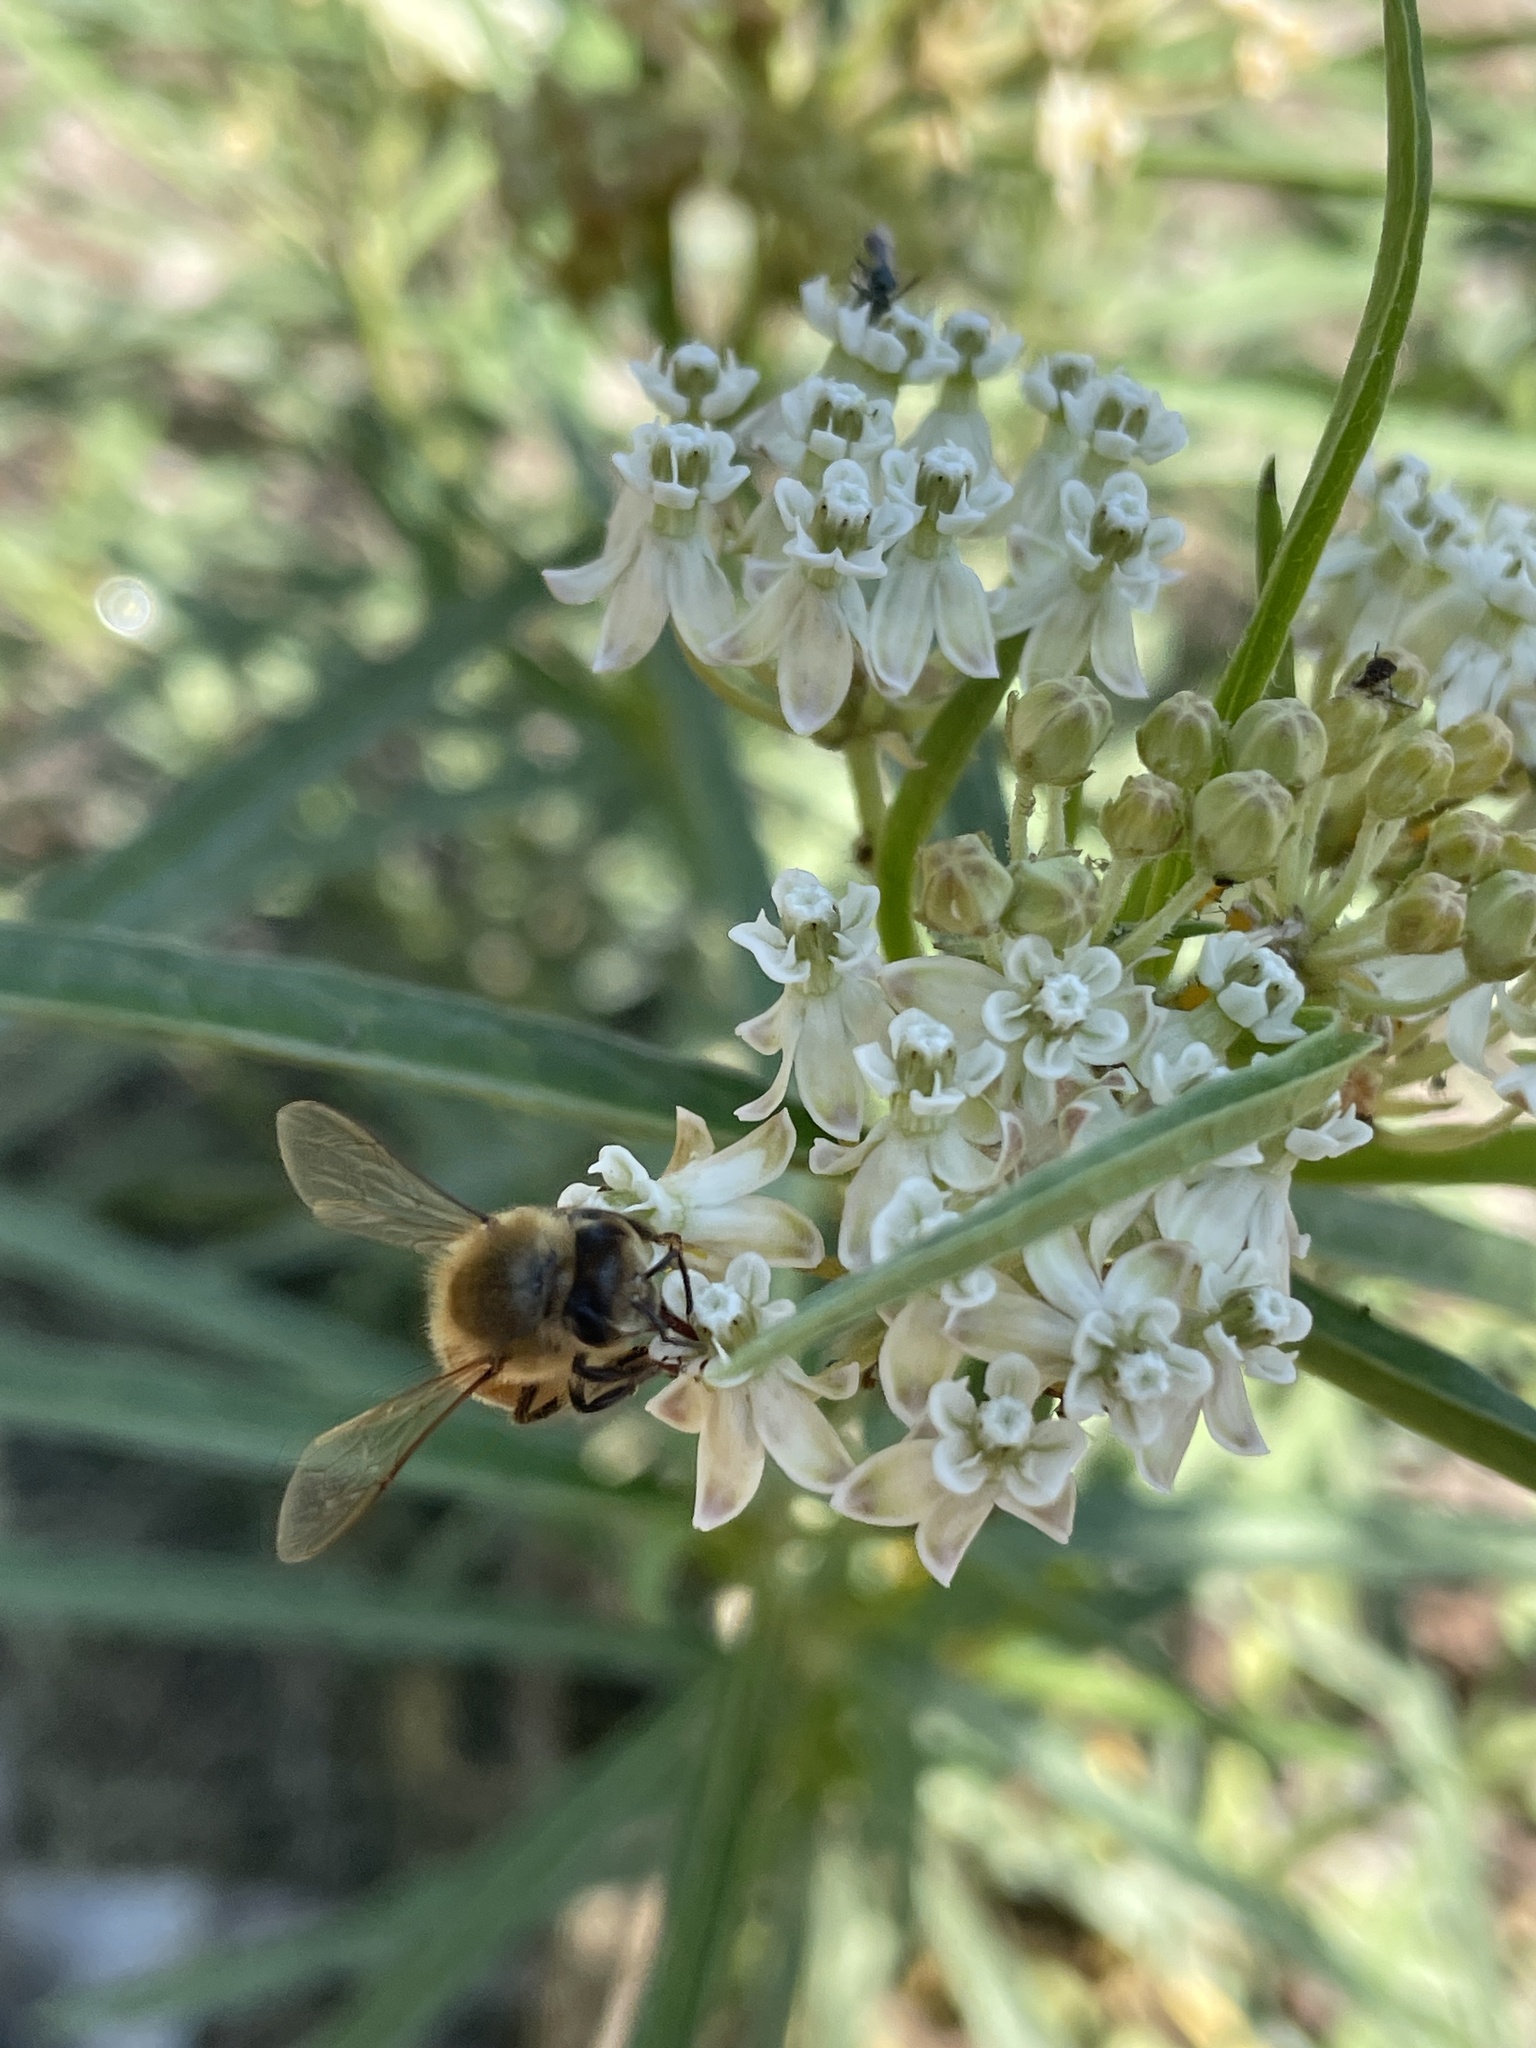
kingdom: Animalia
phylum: Arthropoda
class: Insecta
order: Hymenoptera
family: Apidae
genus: Apis
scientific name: Apis mellifera
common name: Honey bee
